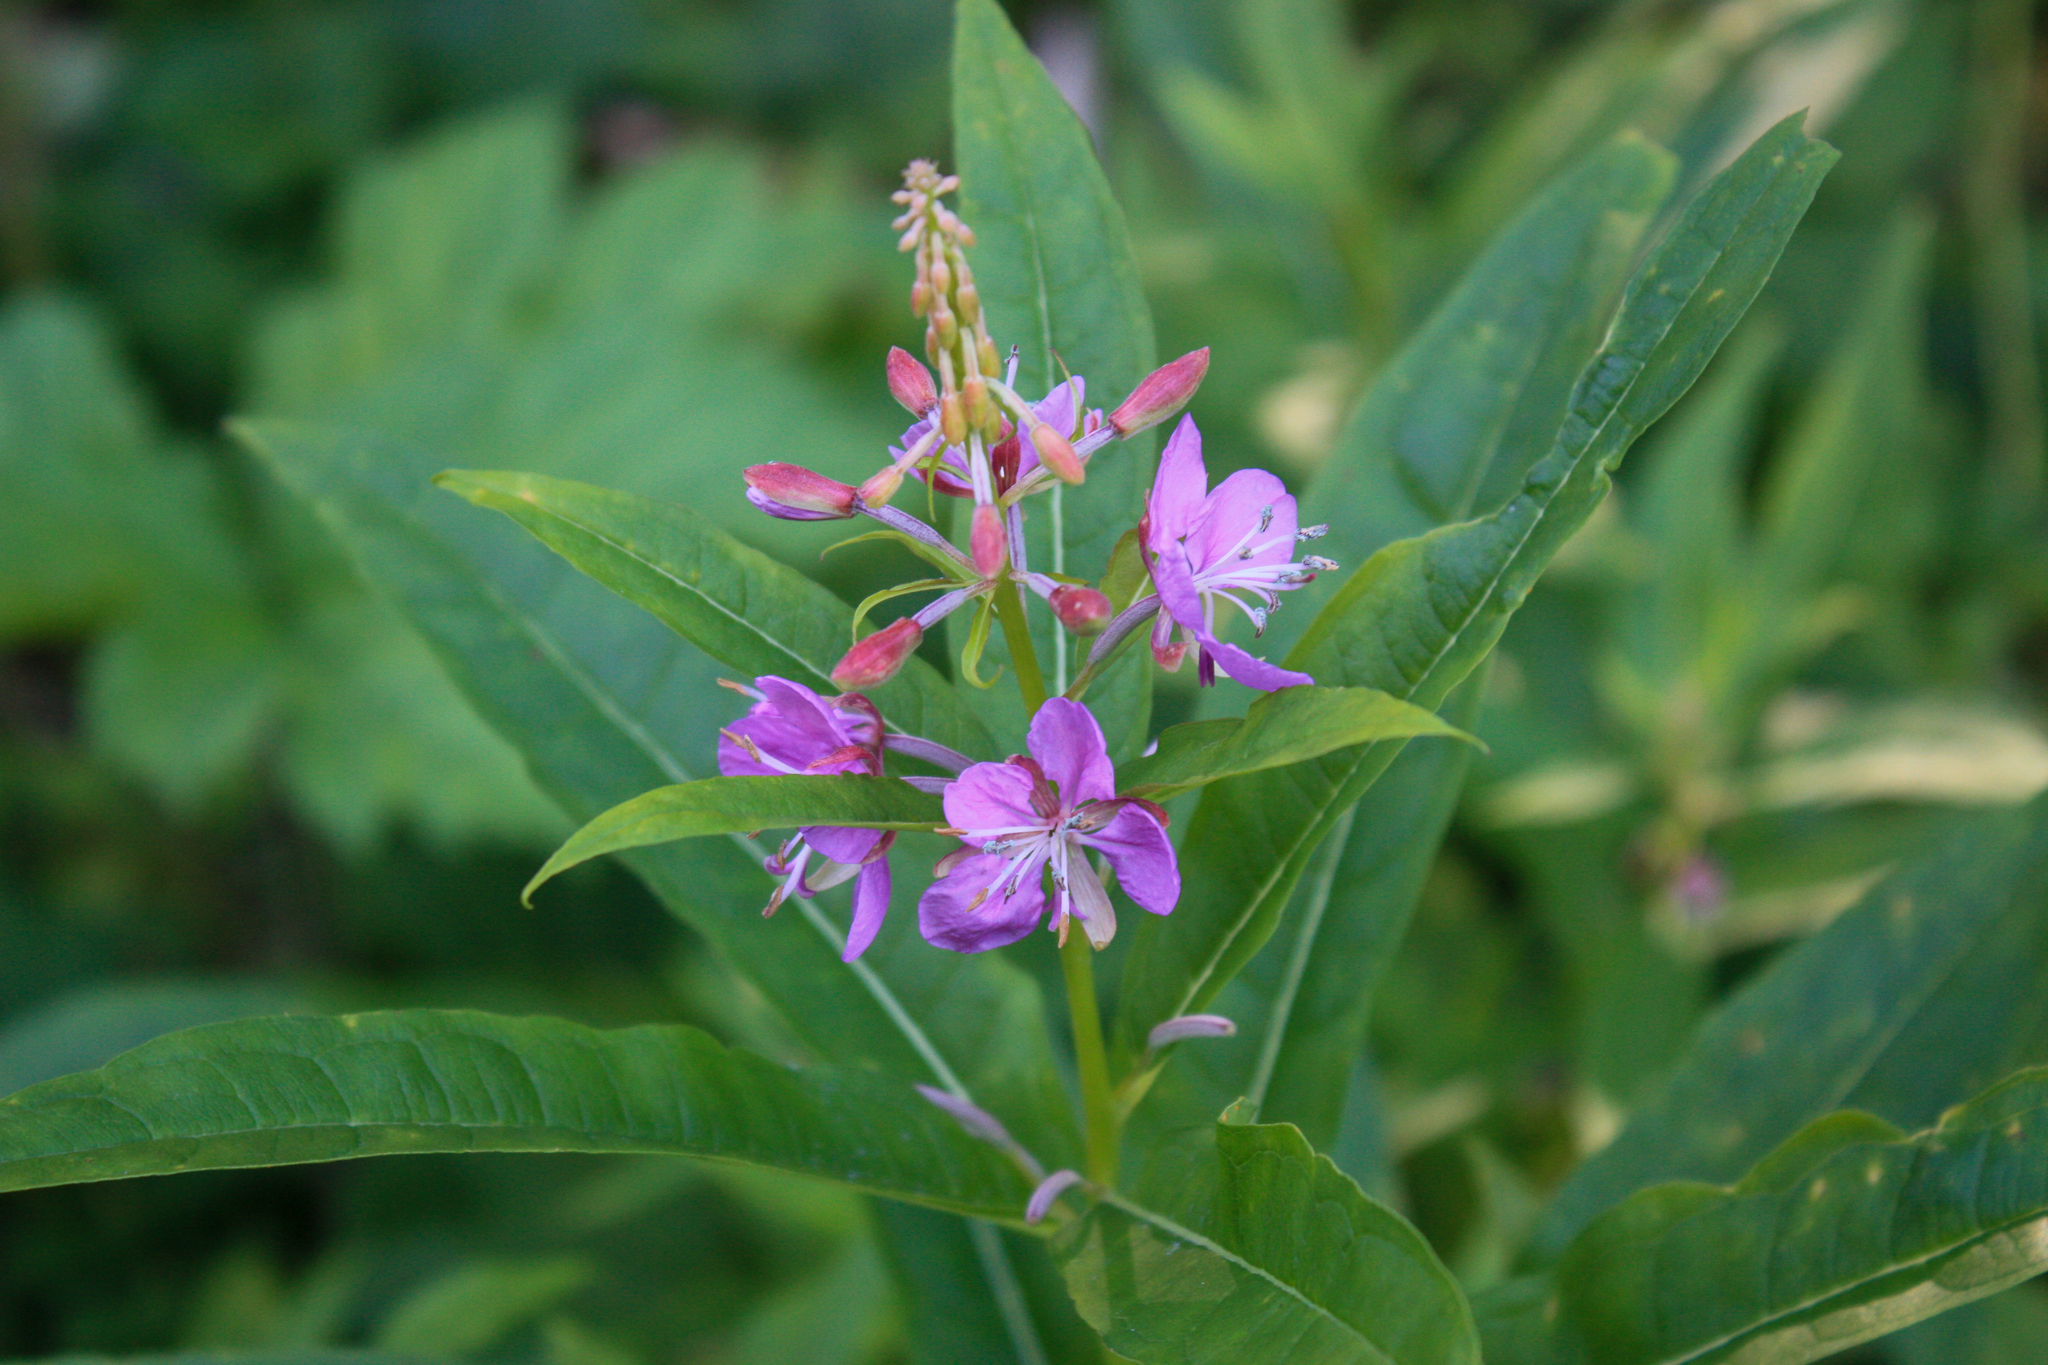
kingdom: Plantae
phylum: Tracheophyta
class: Magnoliopsida
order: Myrtales
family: Onagraceae
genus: Chamaenerion
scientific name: Chamaenerion angustifolium
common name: Fireweed
